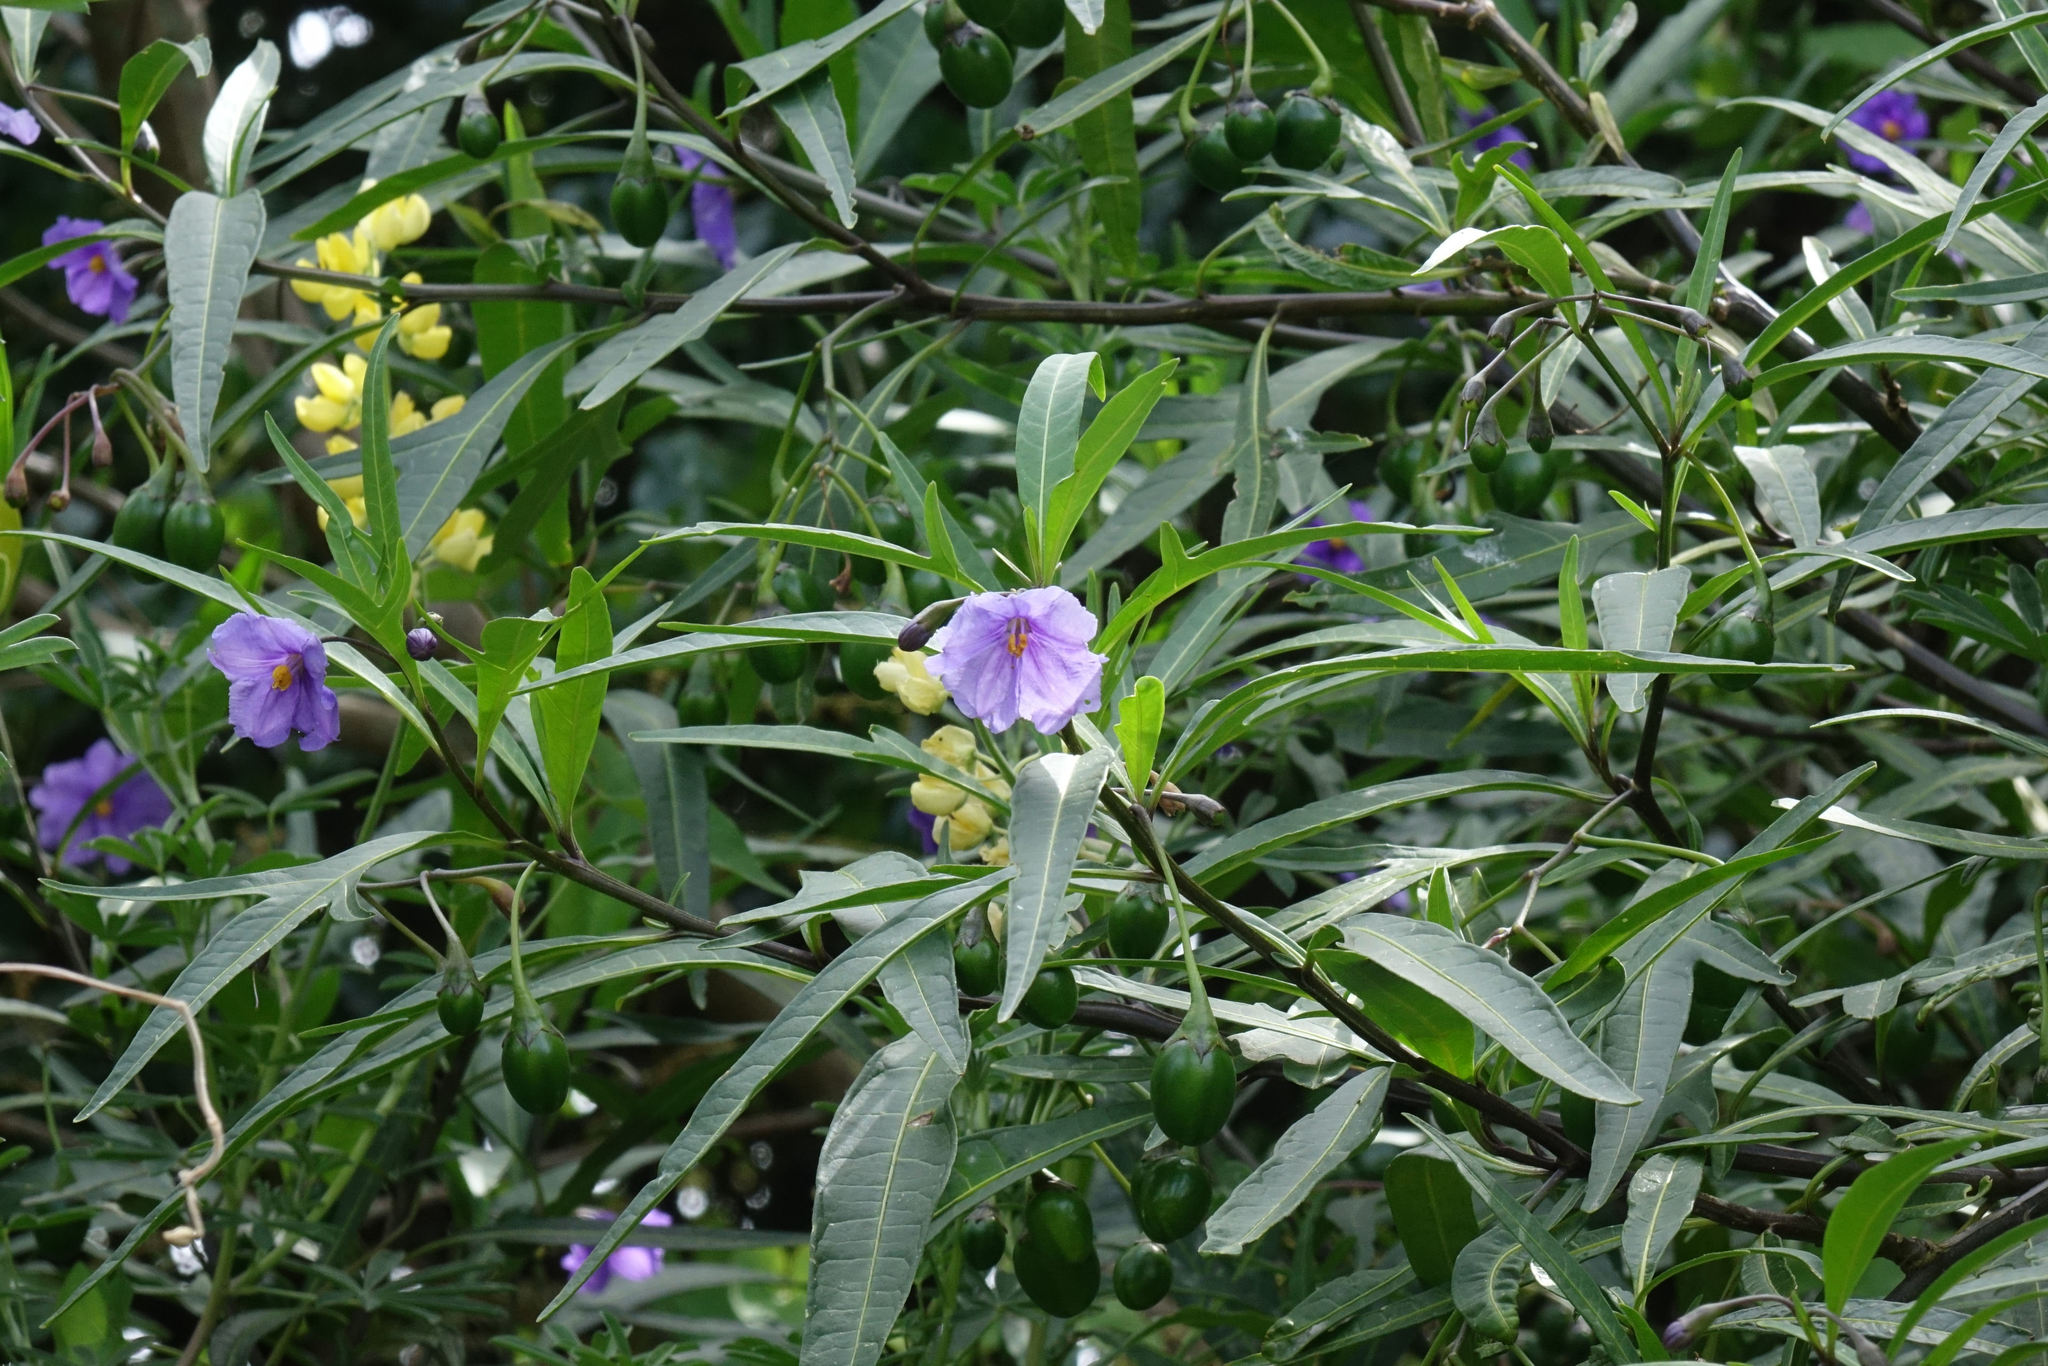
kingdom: Plantae
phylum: Tracheophyta
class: Magnoliopsida
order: Solanales
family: Solanaceae
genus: Solanum
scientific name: Solanum laciniatum
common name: Kangaroo-apple
